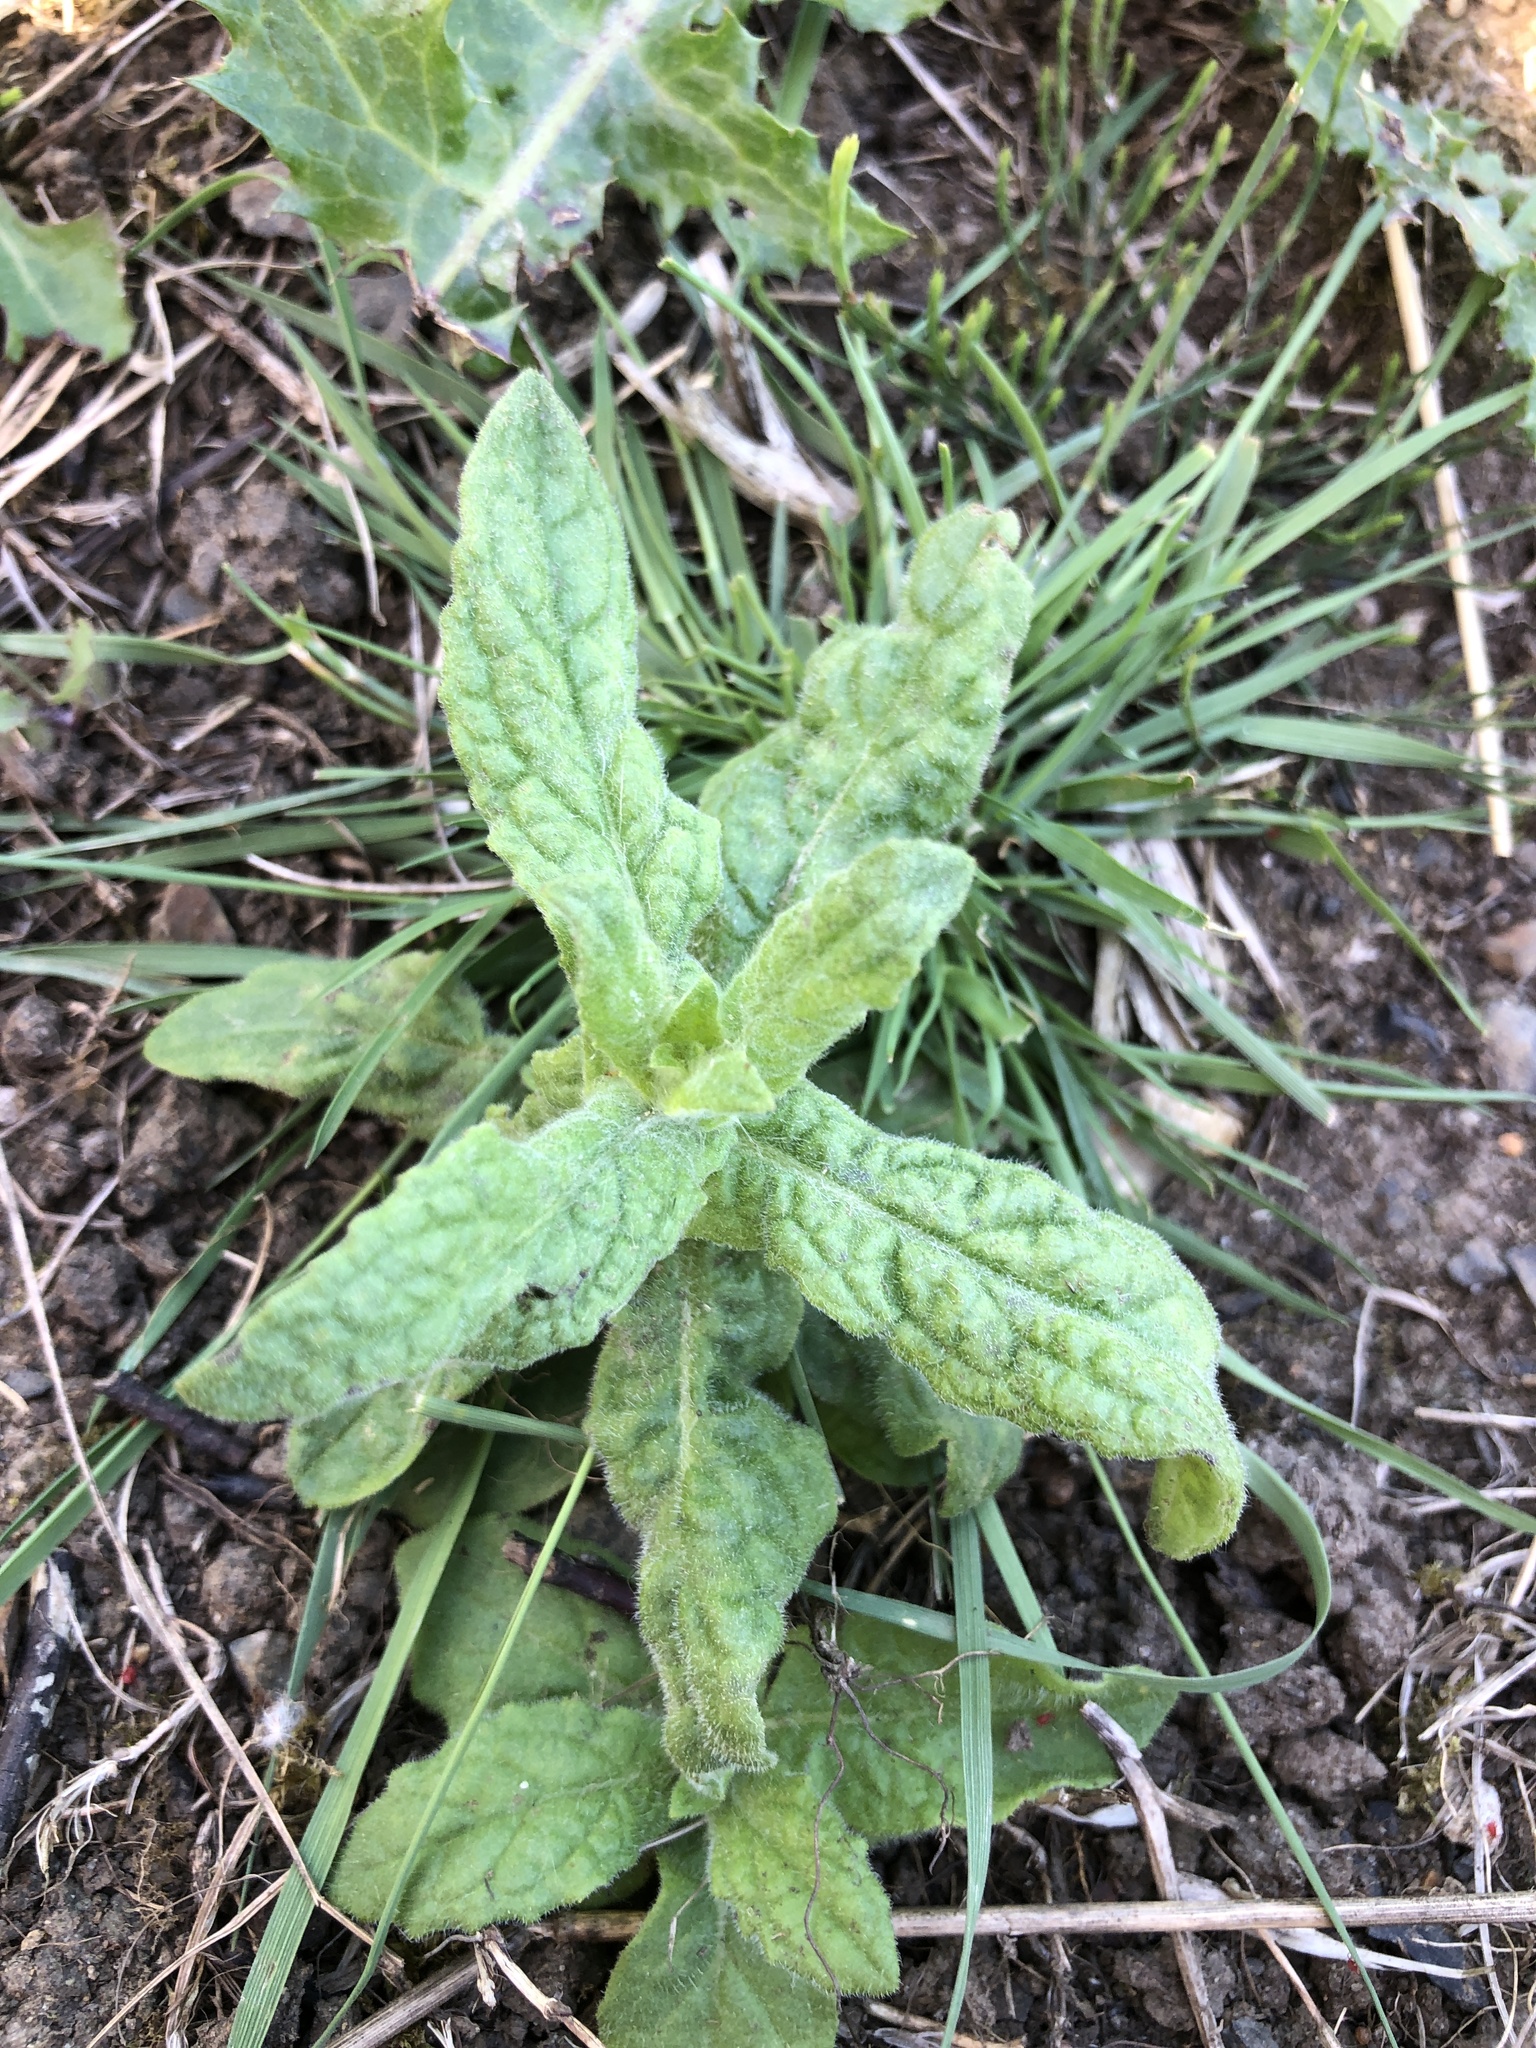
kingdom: Plantae
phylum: Tracheophyta
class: Magnoliopsida
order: Asterales
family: Asteraceae
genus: Pulicaria
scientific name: Pulicaria dysenterica
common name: Common fleabane
